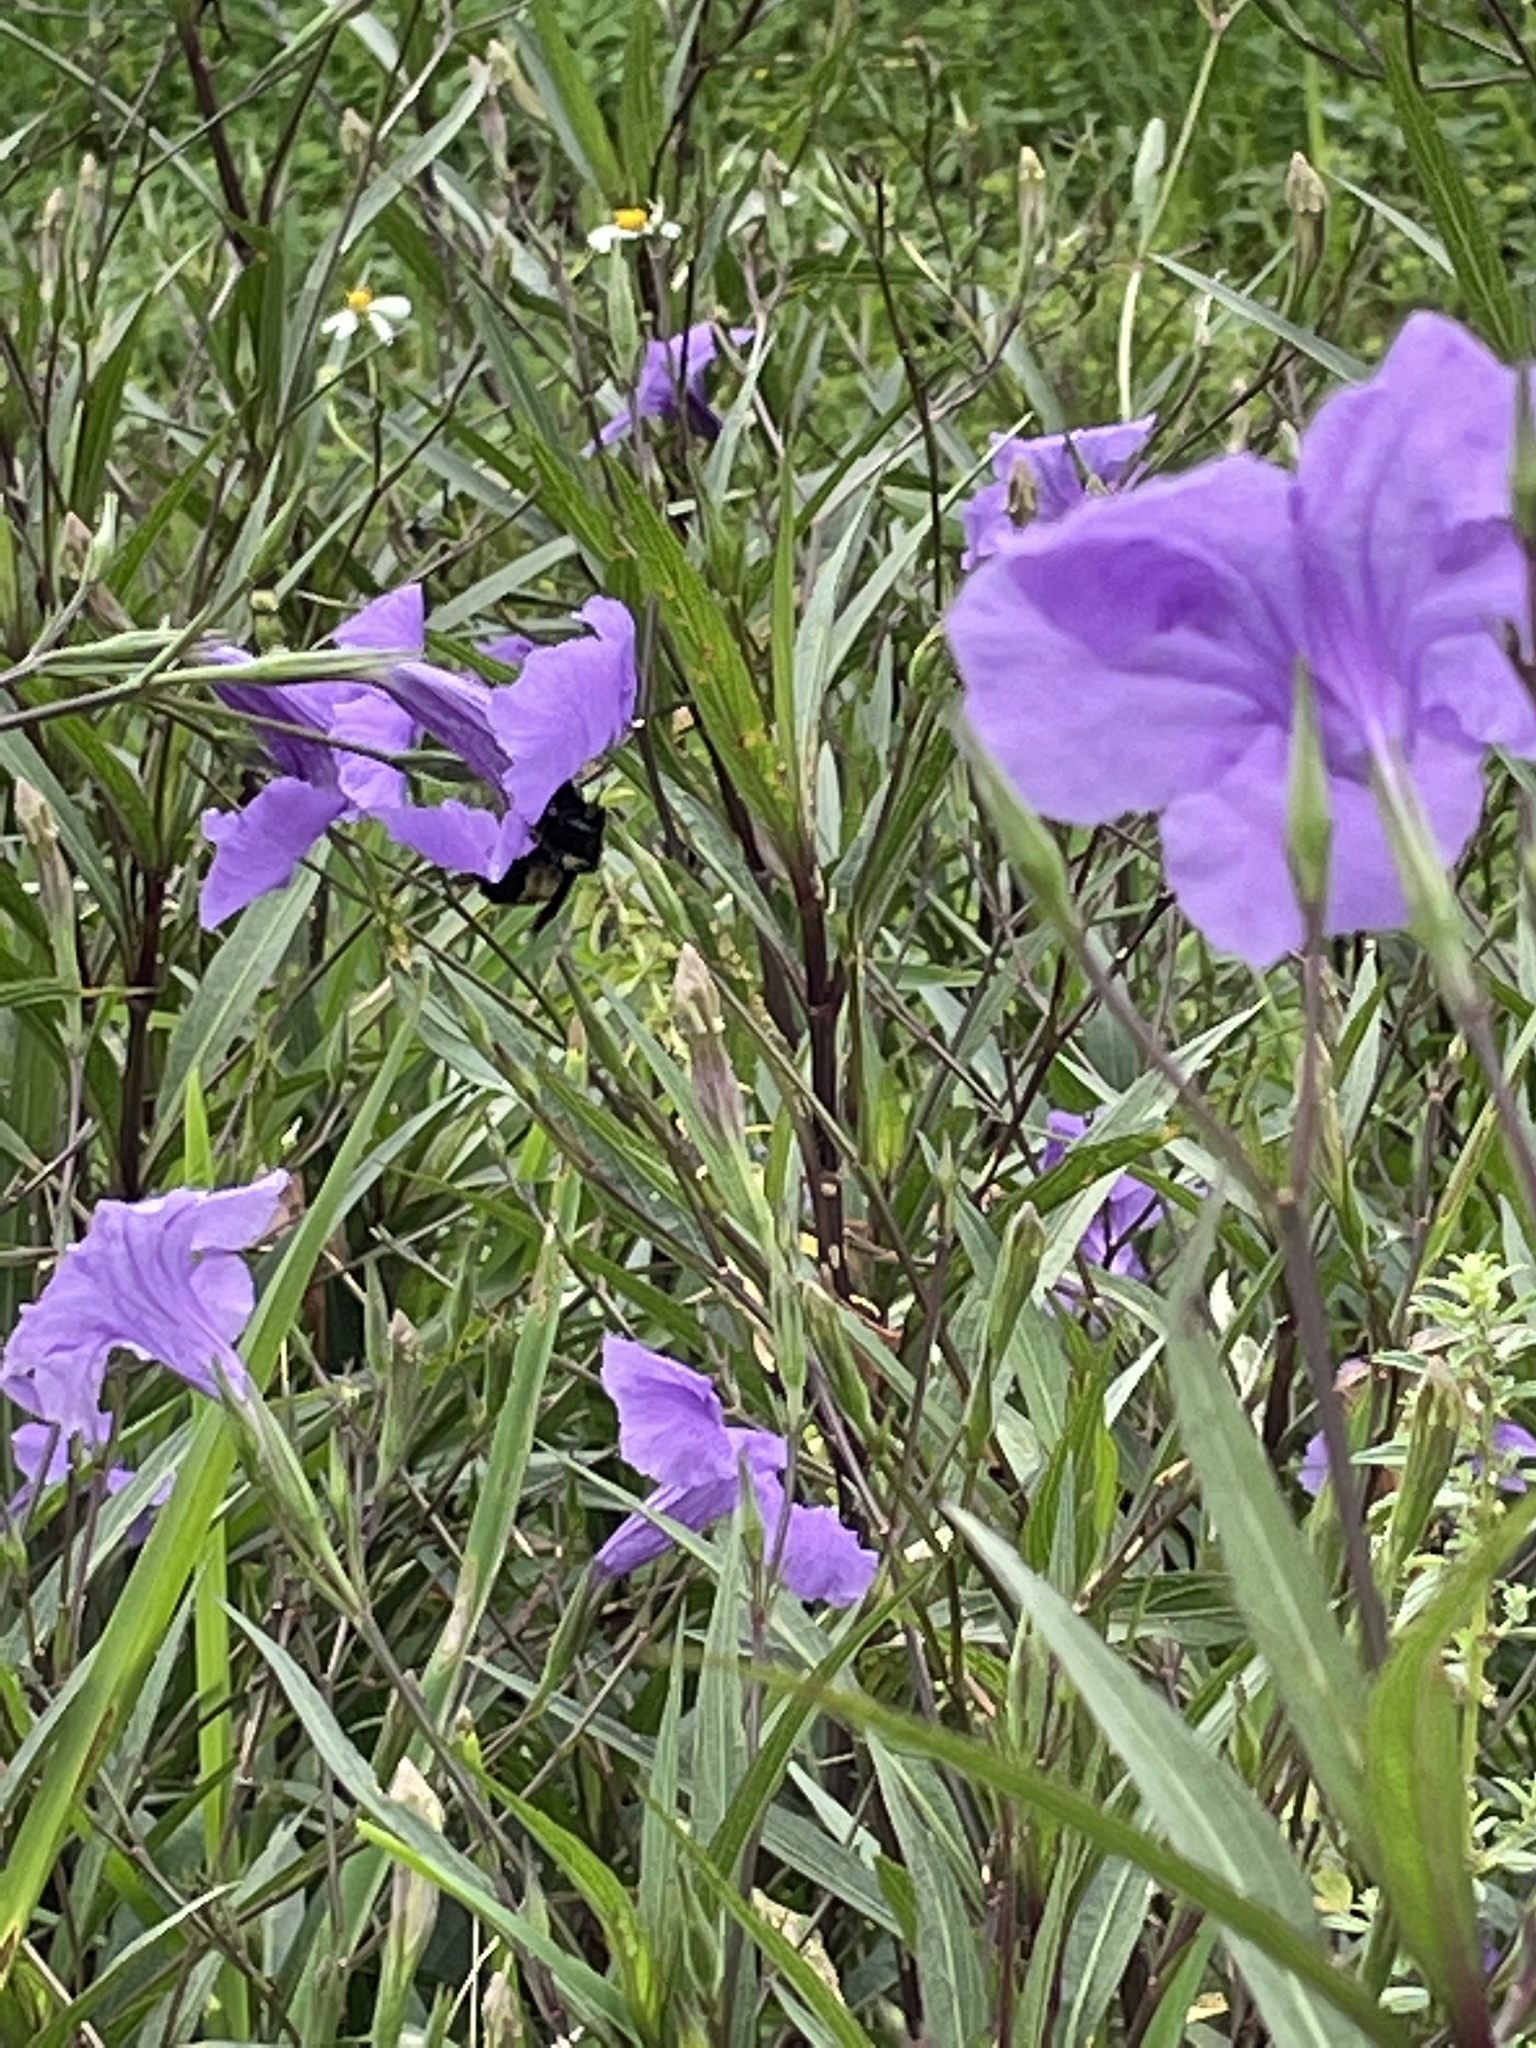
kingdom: Animalia
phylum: Arthropoda
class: Insecta
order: Hymenoptera
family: Apidae
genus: Bombus
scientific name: Bombus pensylvanicus
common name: Bumble bee
